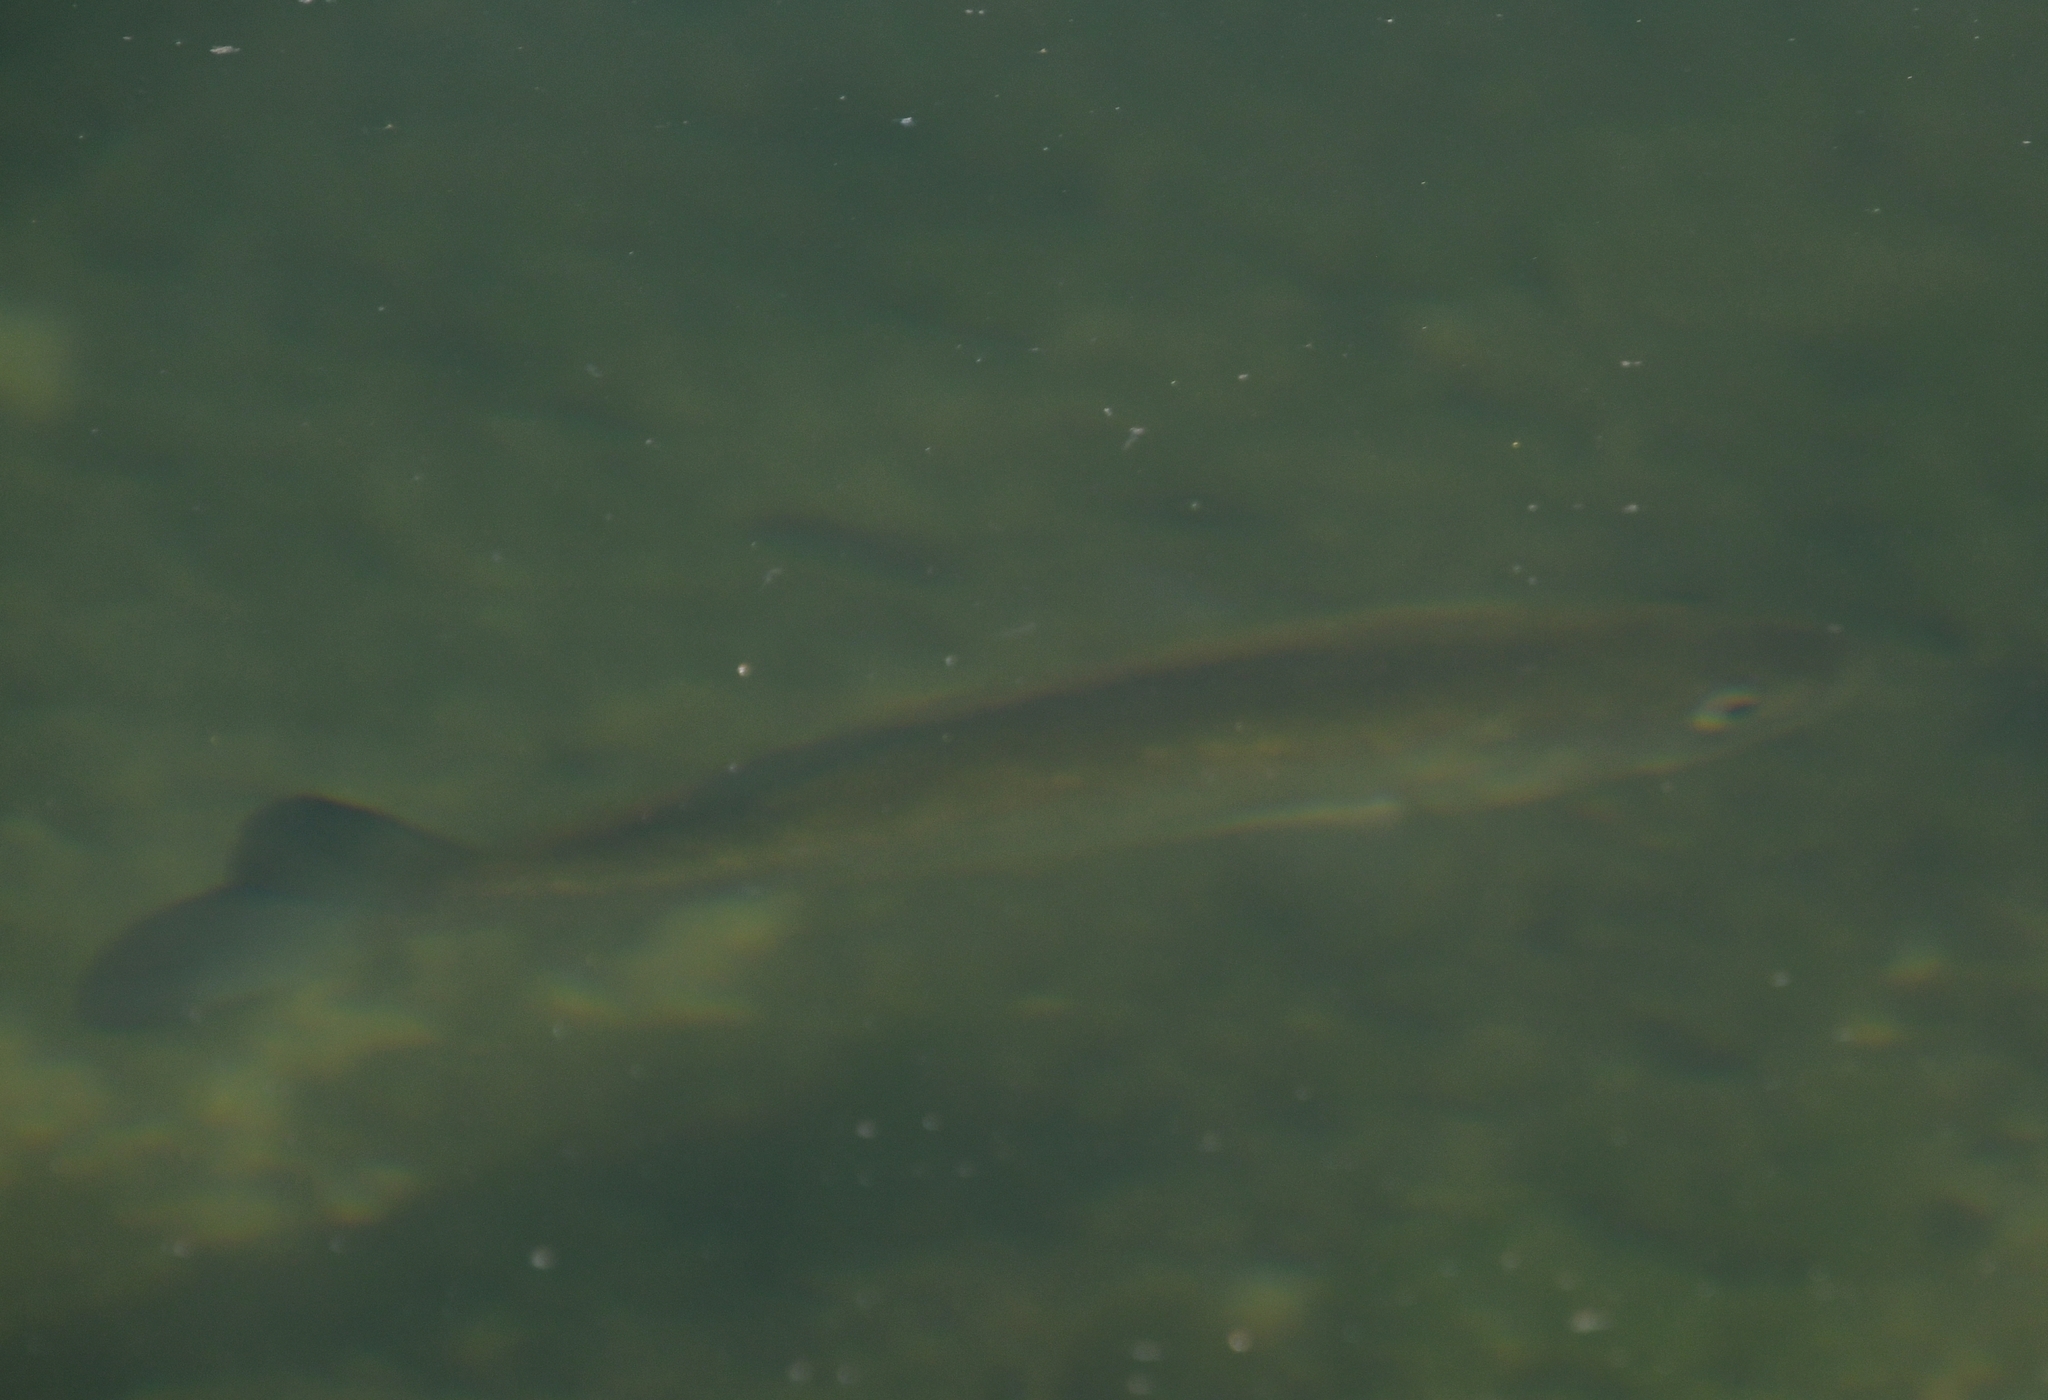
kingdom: Animalia
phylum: Chordata
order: Perciformes
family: Centrarchidae
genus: Micropterus
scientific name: Micropterus salmoides
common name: Largemouth bass
